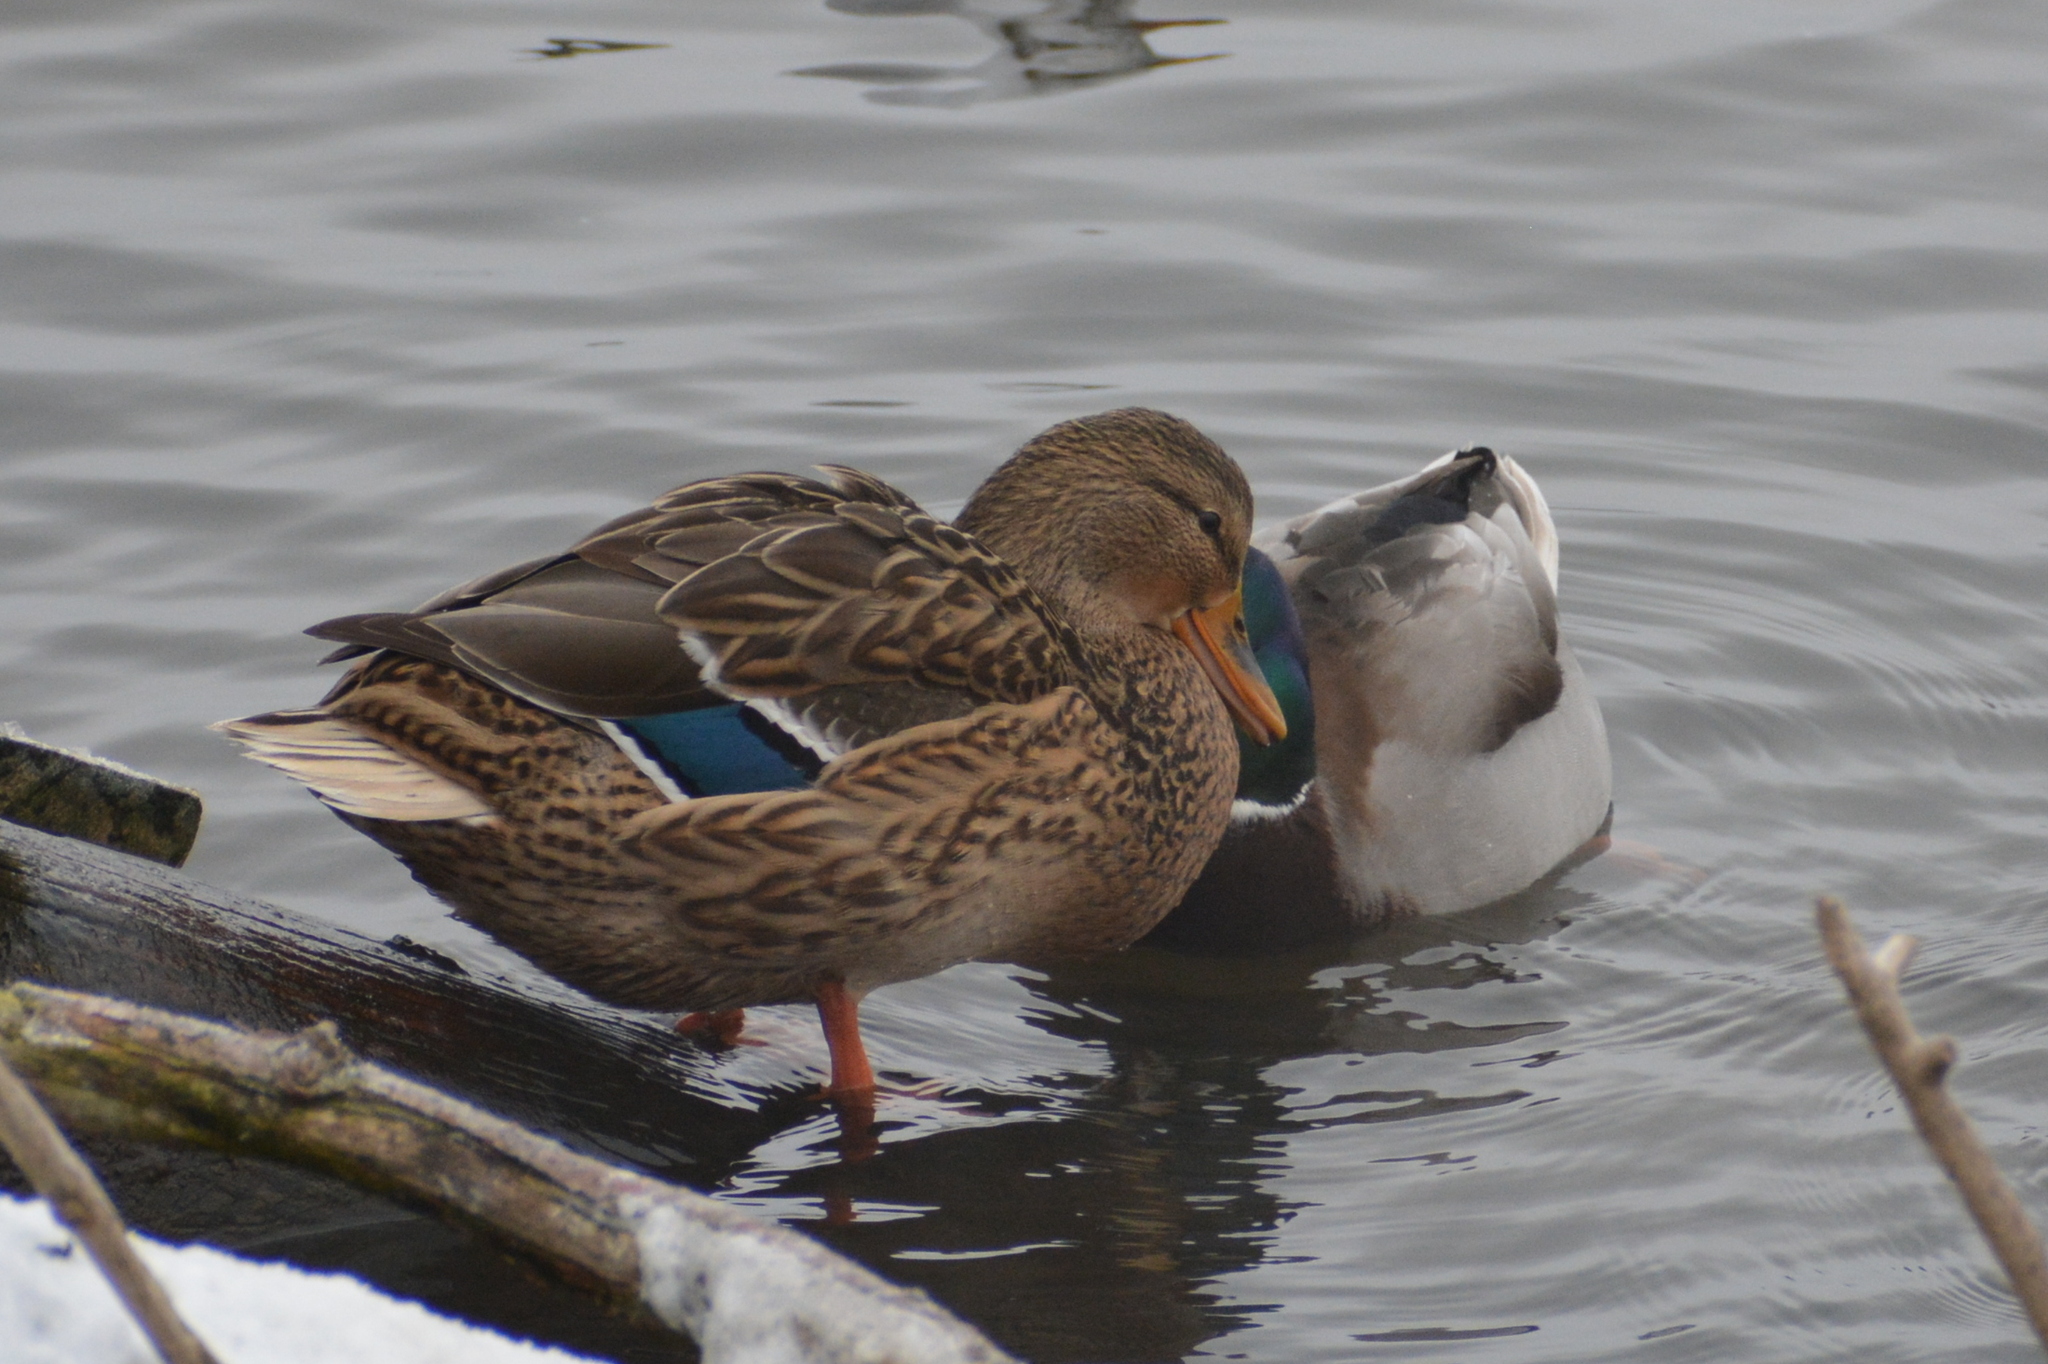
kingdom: Animalia
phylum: Chordata
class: Aves
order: Anseriformes
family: Anatidae
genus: Anas
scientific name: Anas platyrhynchos
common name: Mallard
